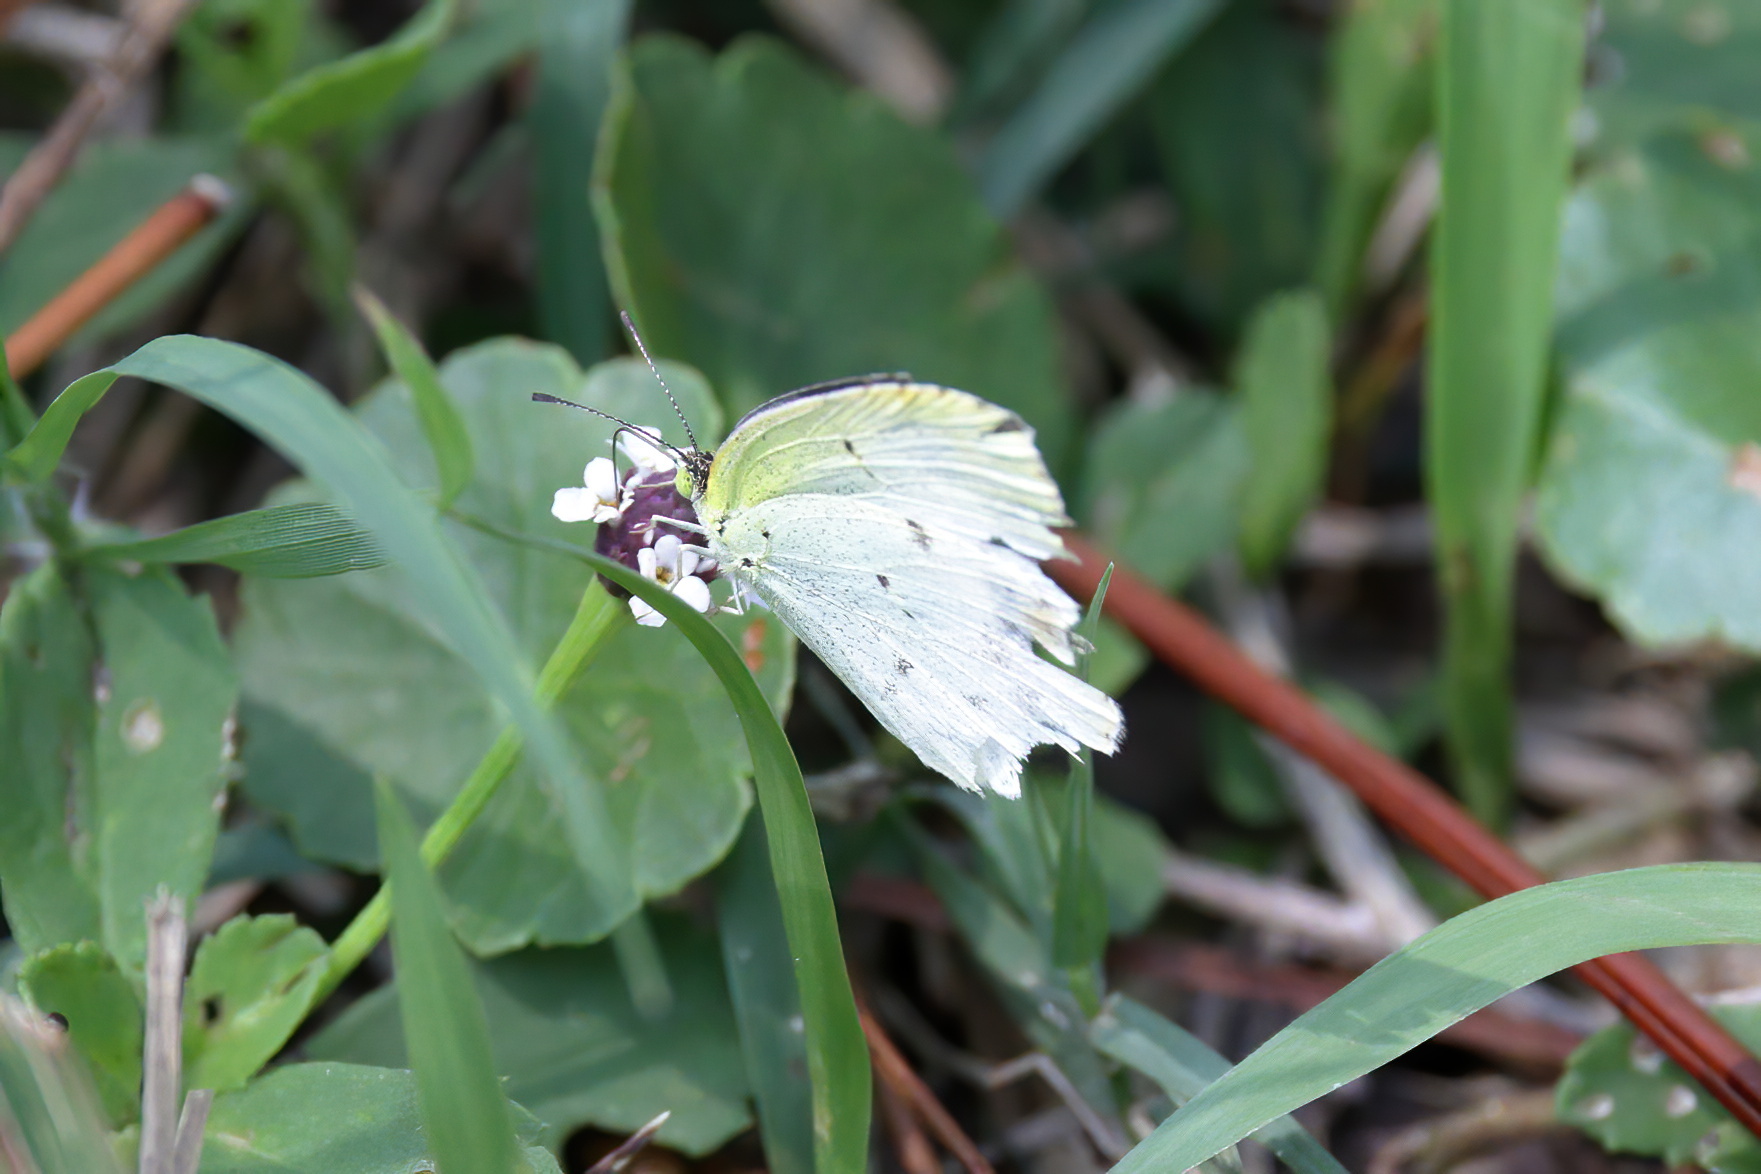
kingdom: Animalia
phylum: Arthropoda
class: Insecta
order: Lepidoptera
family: Pieridae
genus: Pyrisitia
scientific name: Pyrisitia lisa
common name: Little yellow
